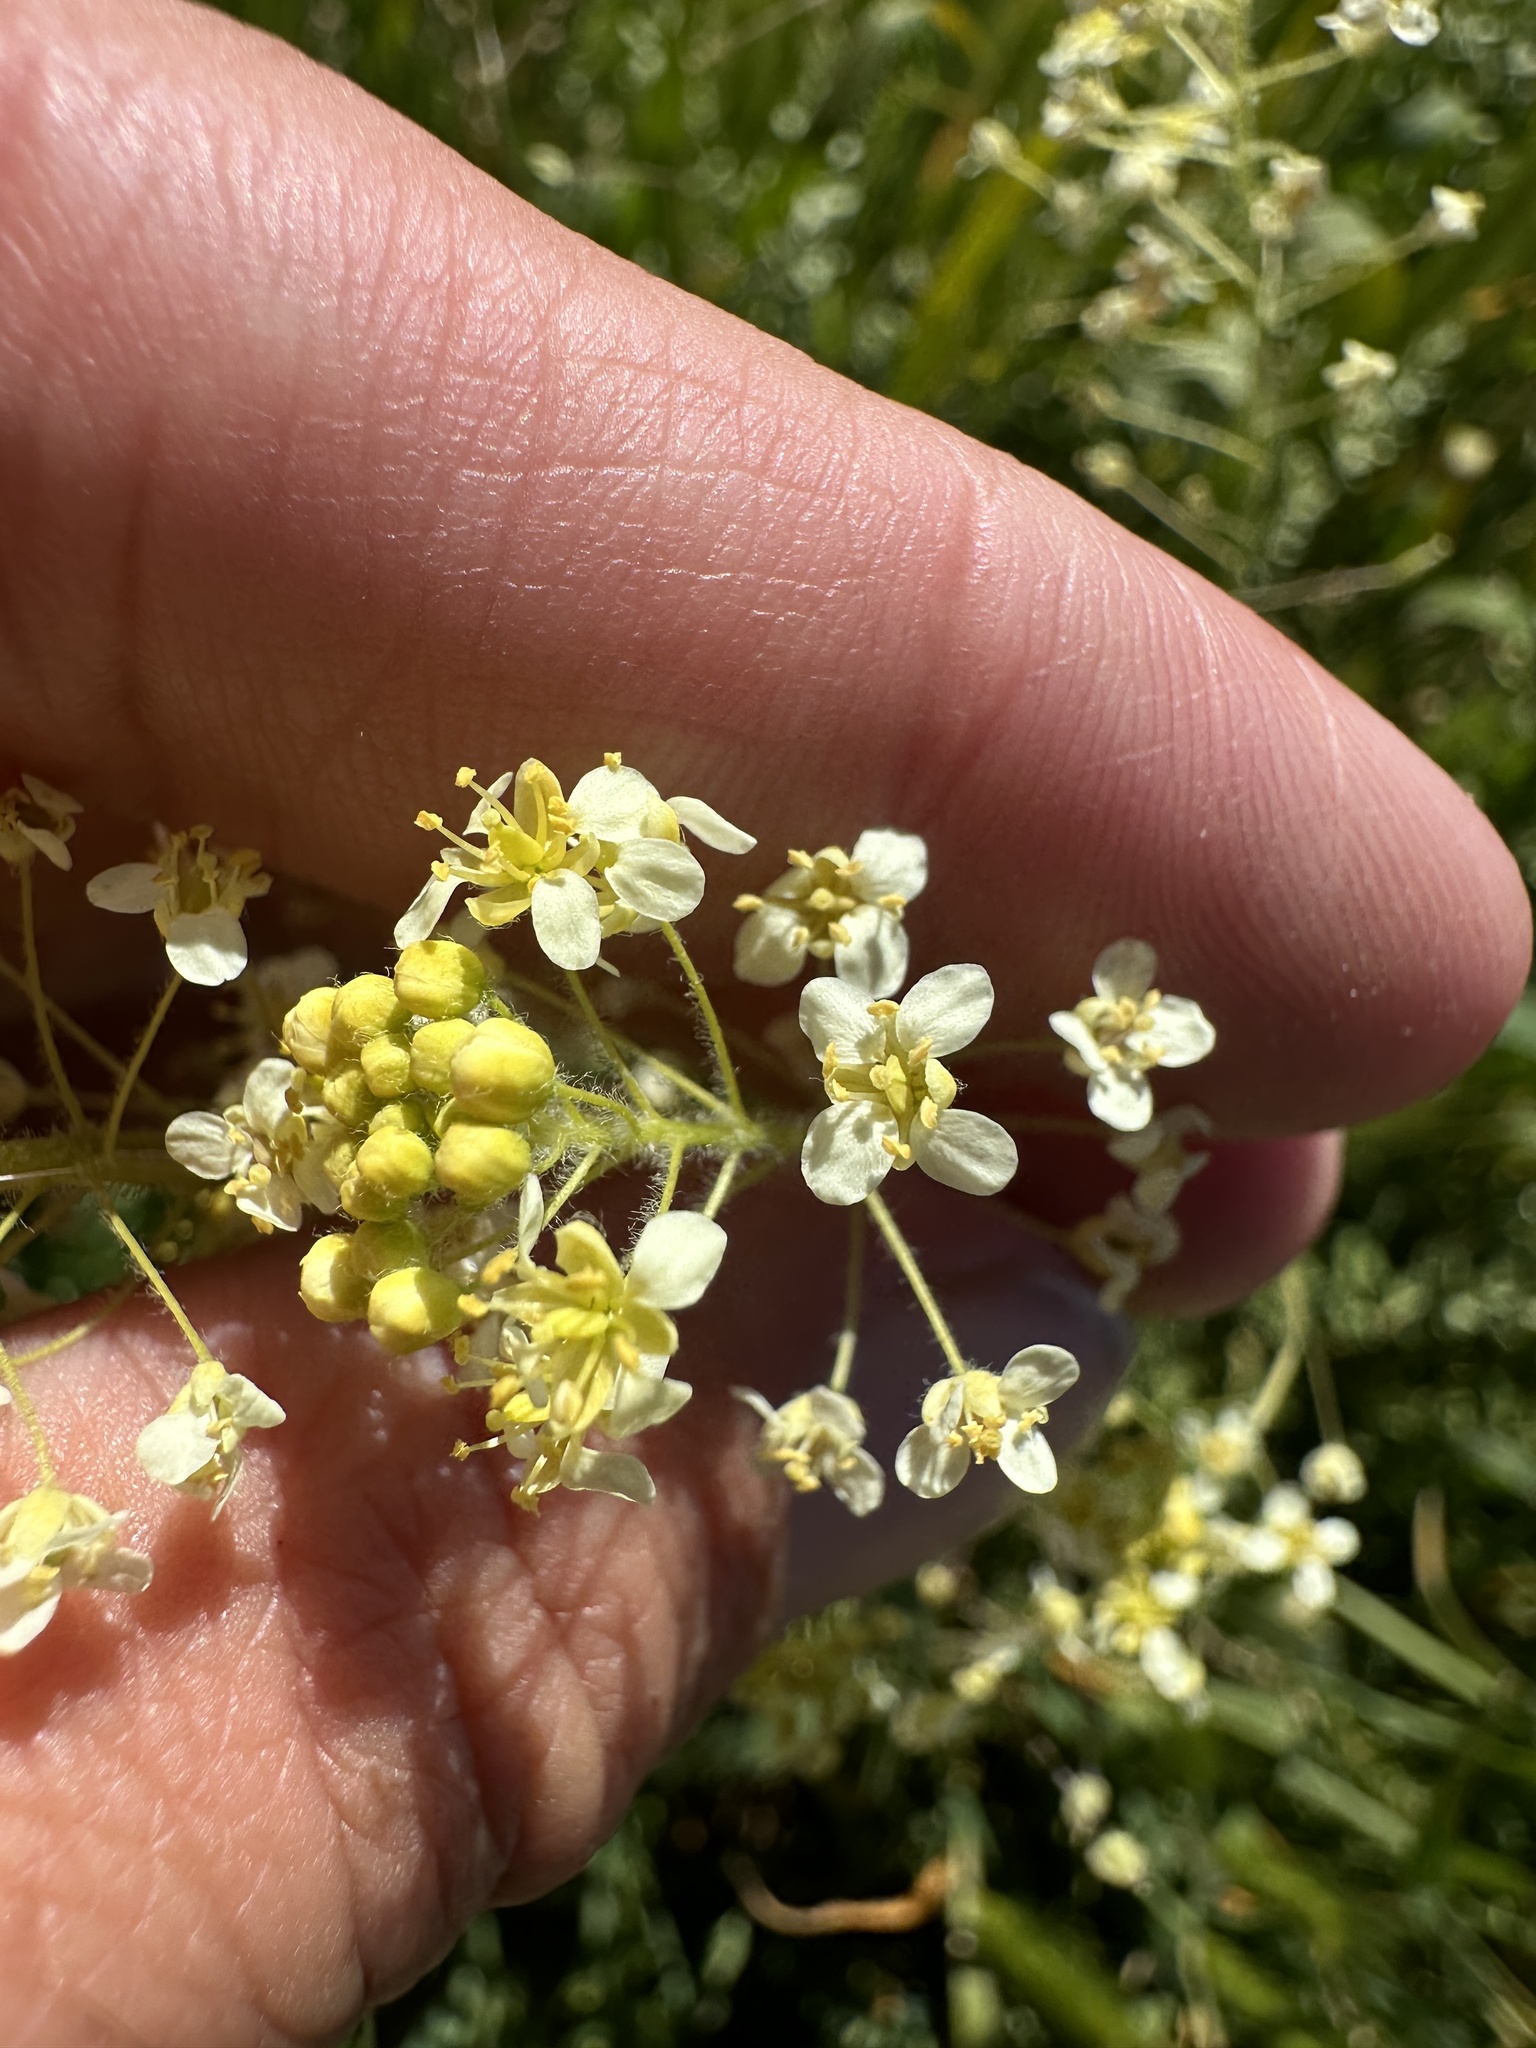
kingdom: Plantae
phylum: Tracheophyta
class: Magnoliopsida
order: Brassicales
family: Brassicaceae
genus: Lepidium
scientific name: Lepidium jaredii
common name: Jared's peppergrass
